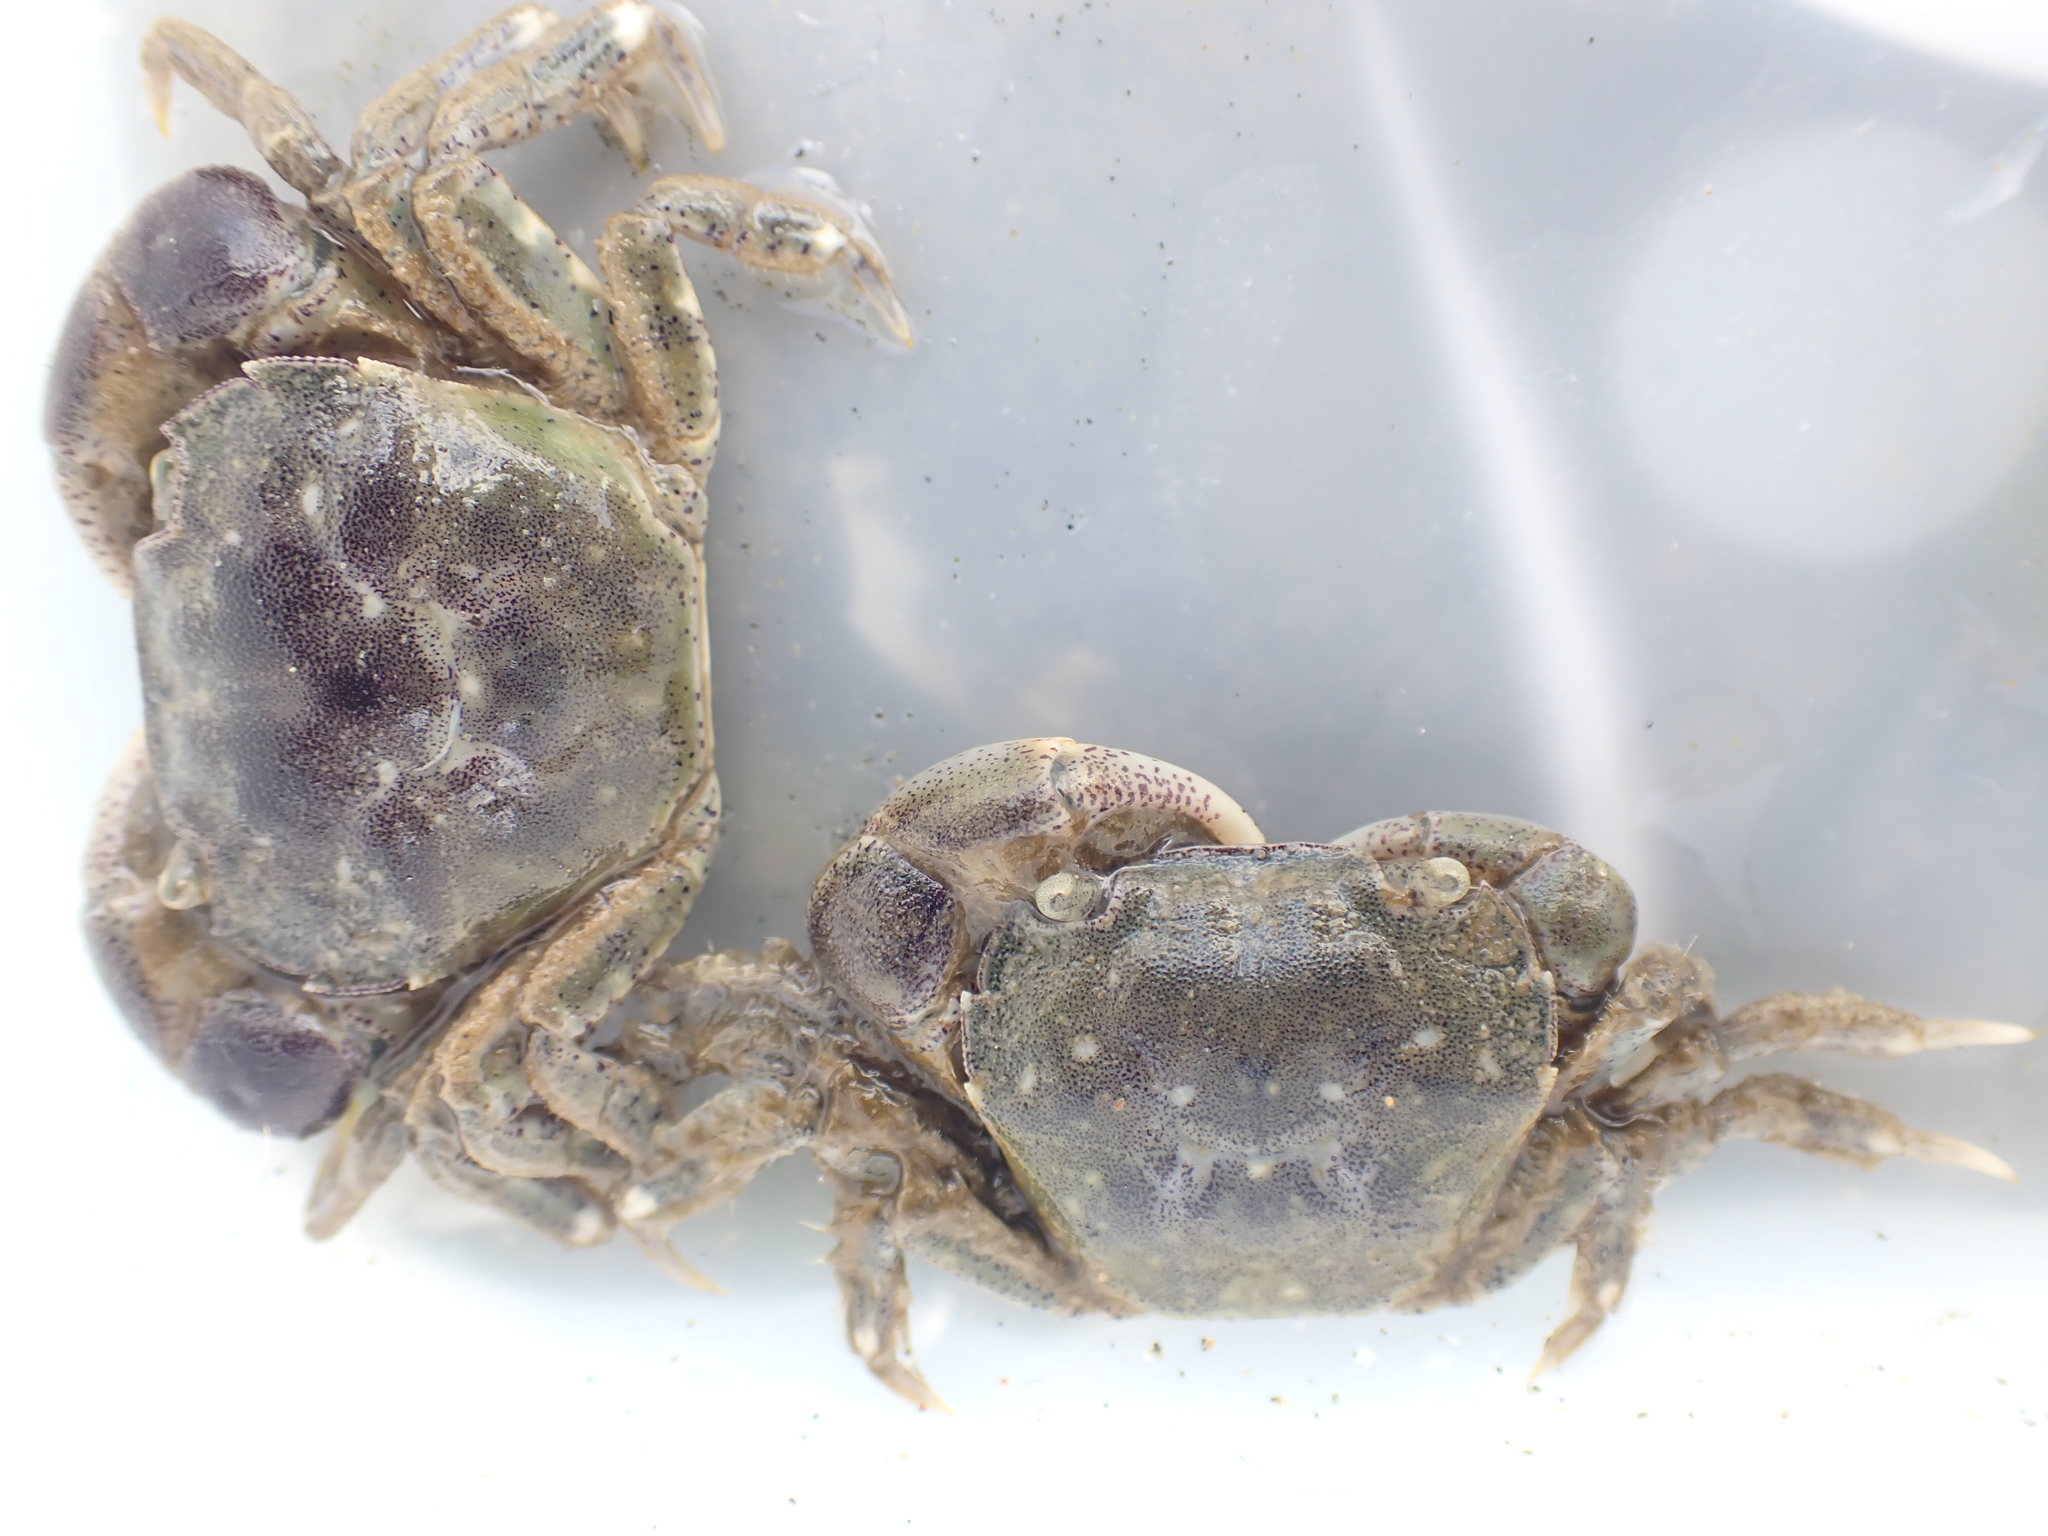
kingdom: Animalia
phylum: Arthropoda
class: Malacostraca
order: Decapoda
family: Varunidae
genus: Hemigrapsus
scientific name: Hemigrapsus crenulatus
